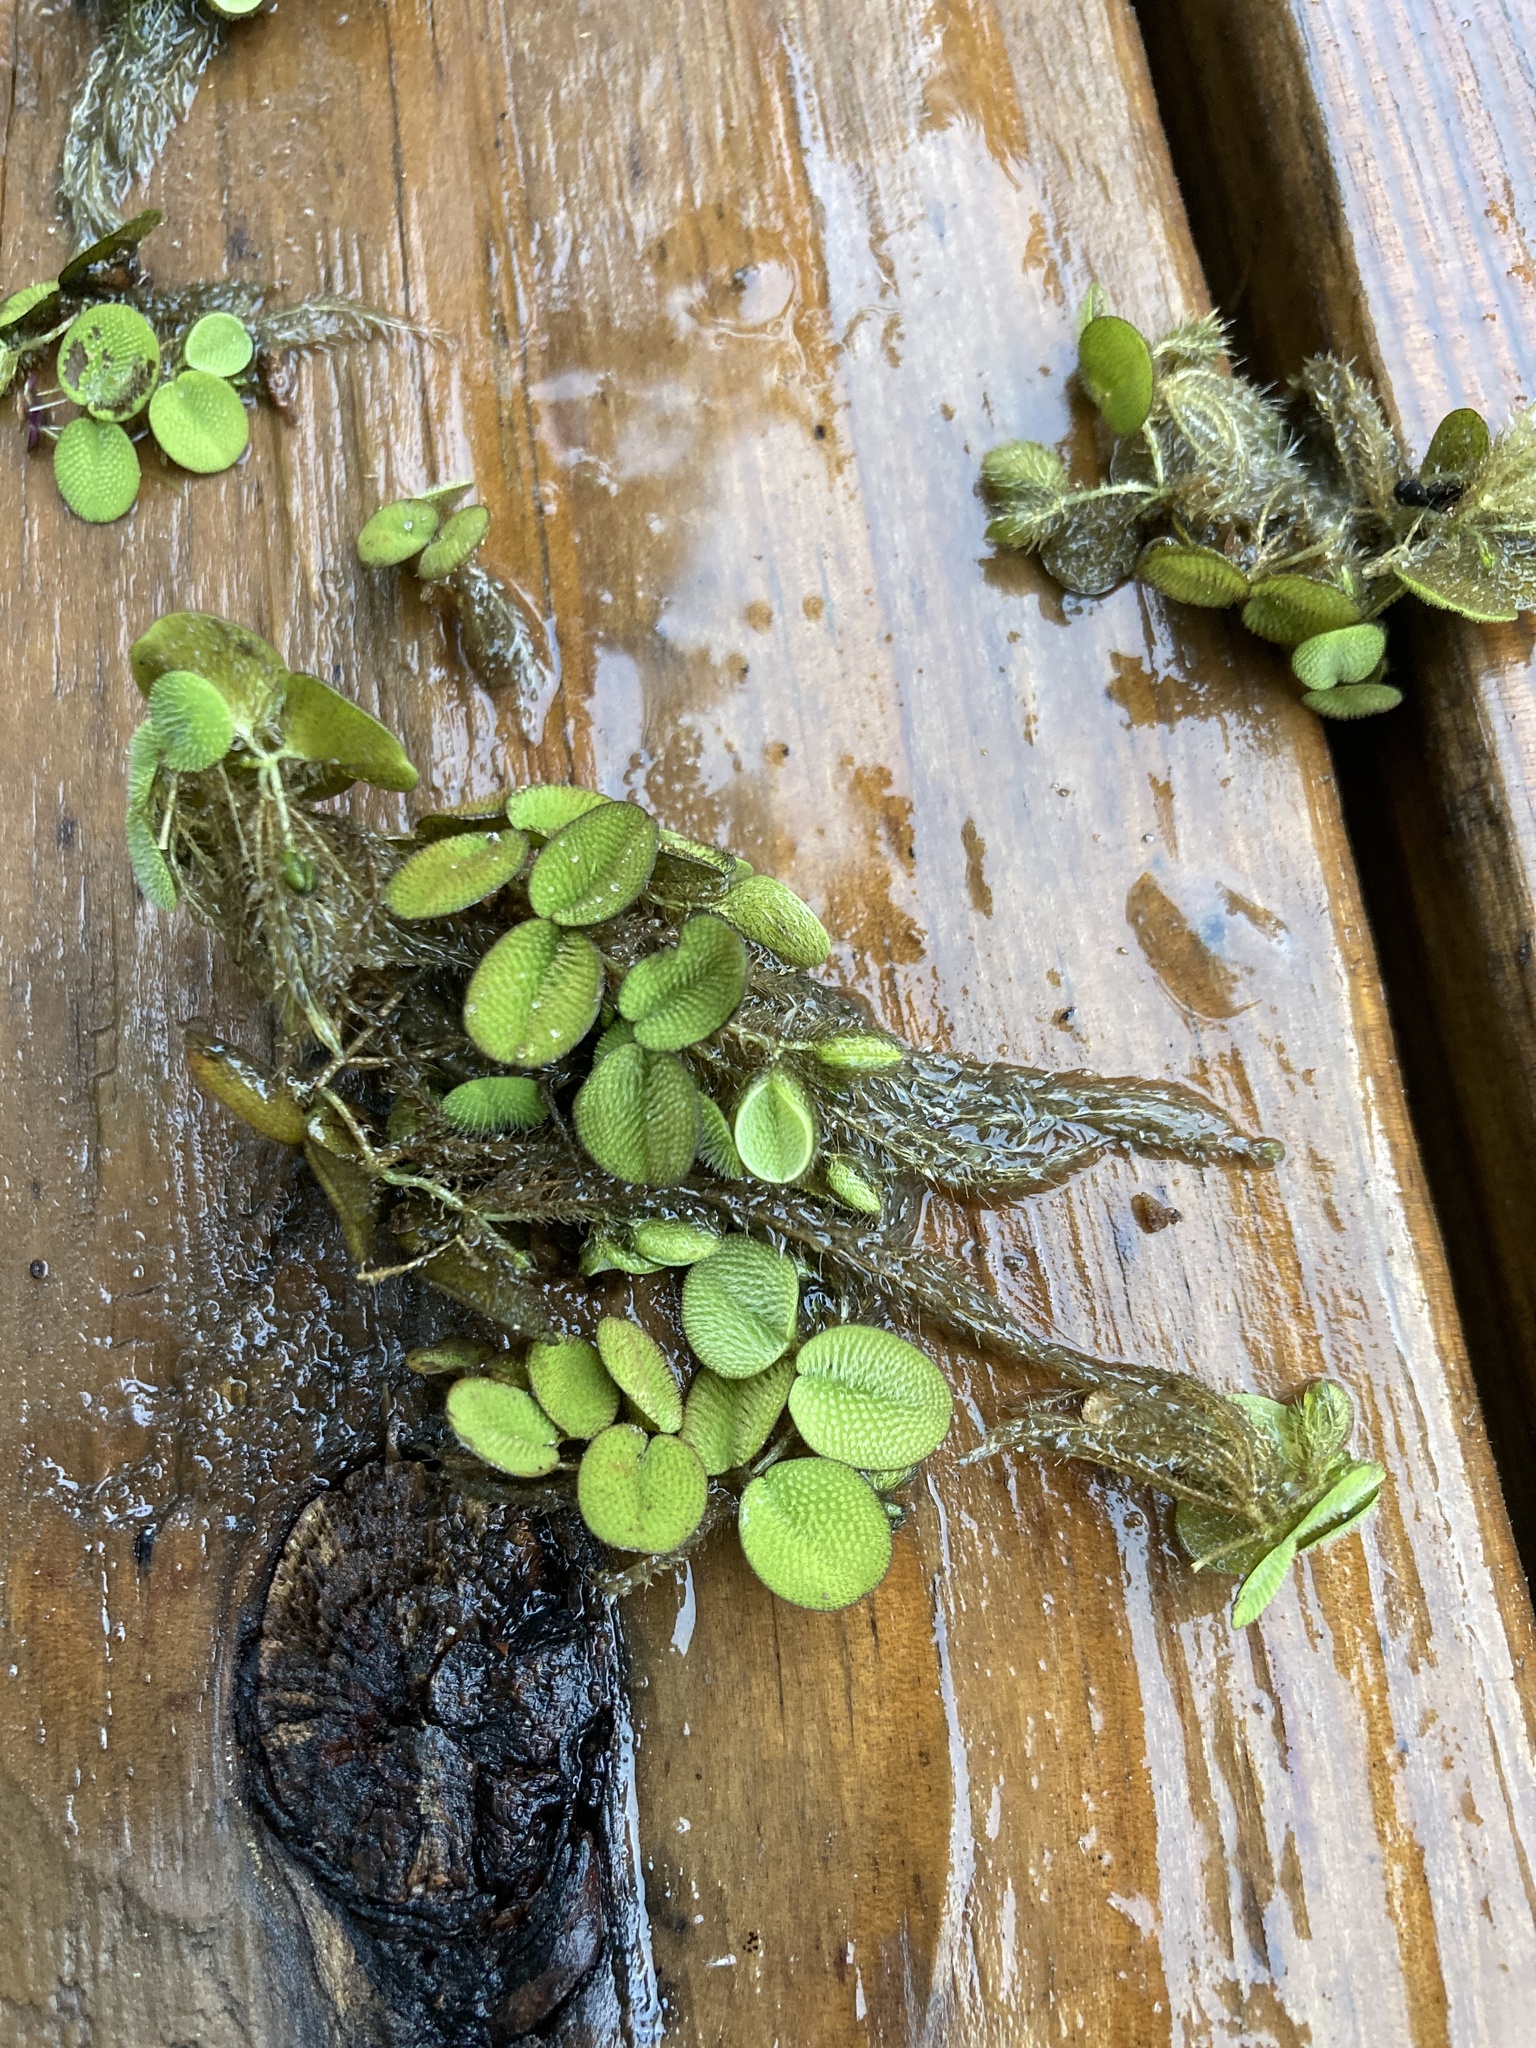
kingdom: Plantae
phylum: Tracheophyta
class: Polypodiopsida
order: Salviniales
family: Salviniaceae
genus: Salvinia
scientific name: Salvinia minima
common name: Water spangles
